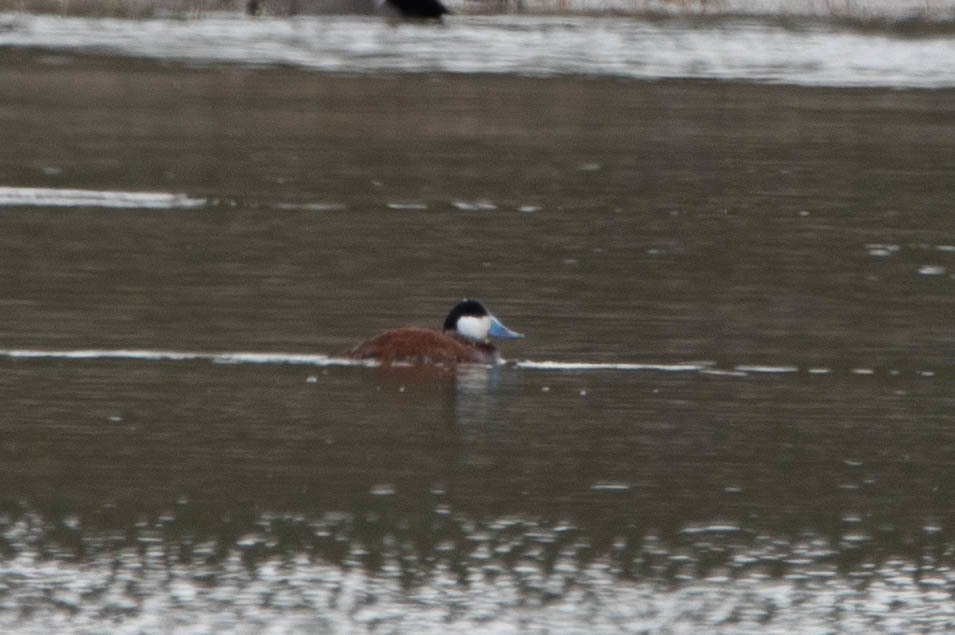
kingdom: Animalia
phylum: Chordata
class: Aves
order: Anseriformes
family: Anatidae
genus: Oxyura
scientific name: Oxyura jamaicensis
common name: Ruddy duck
